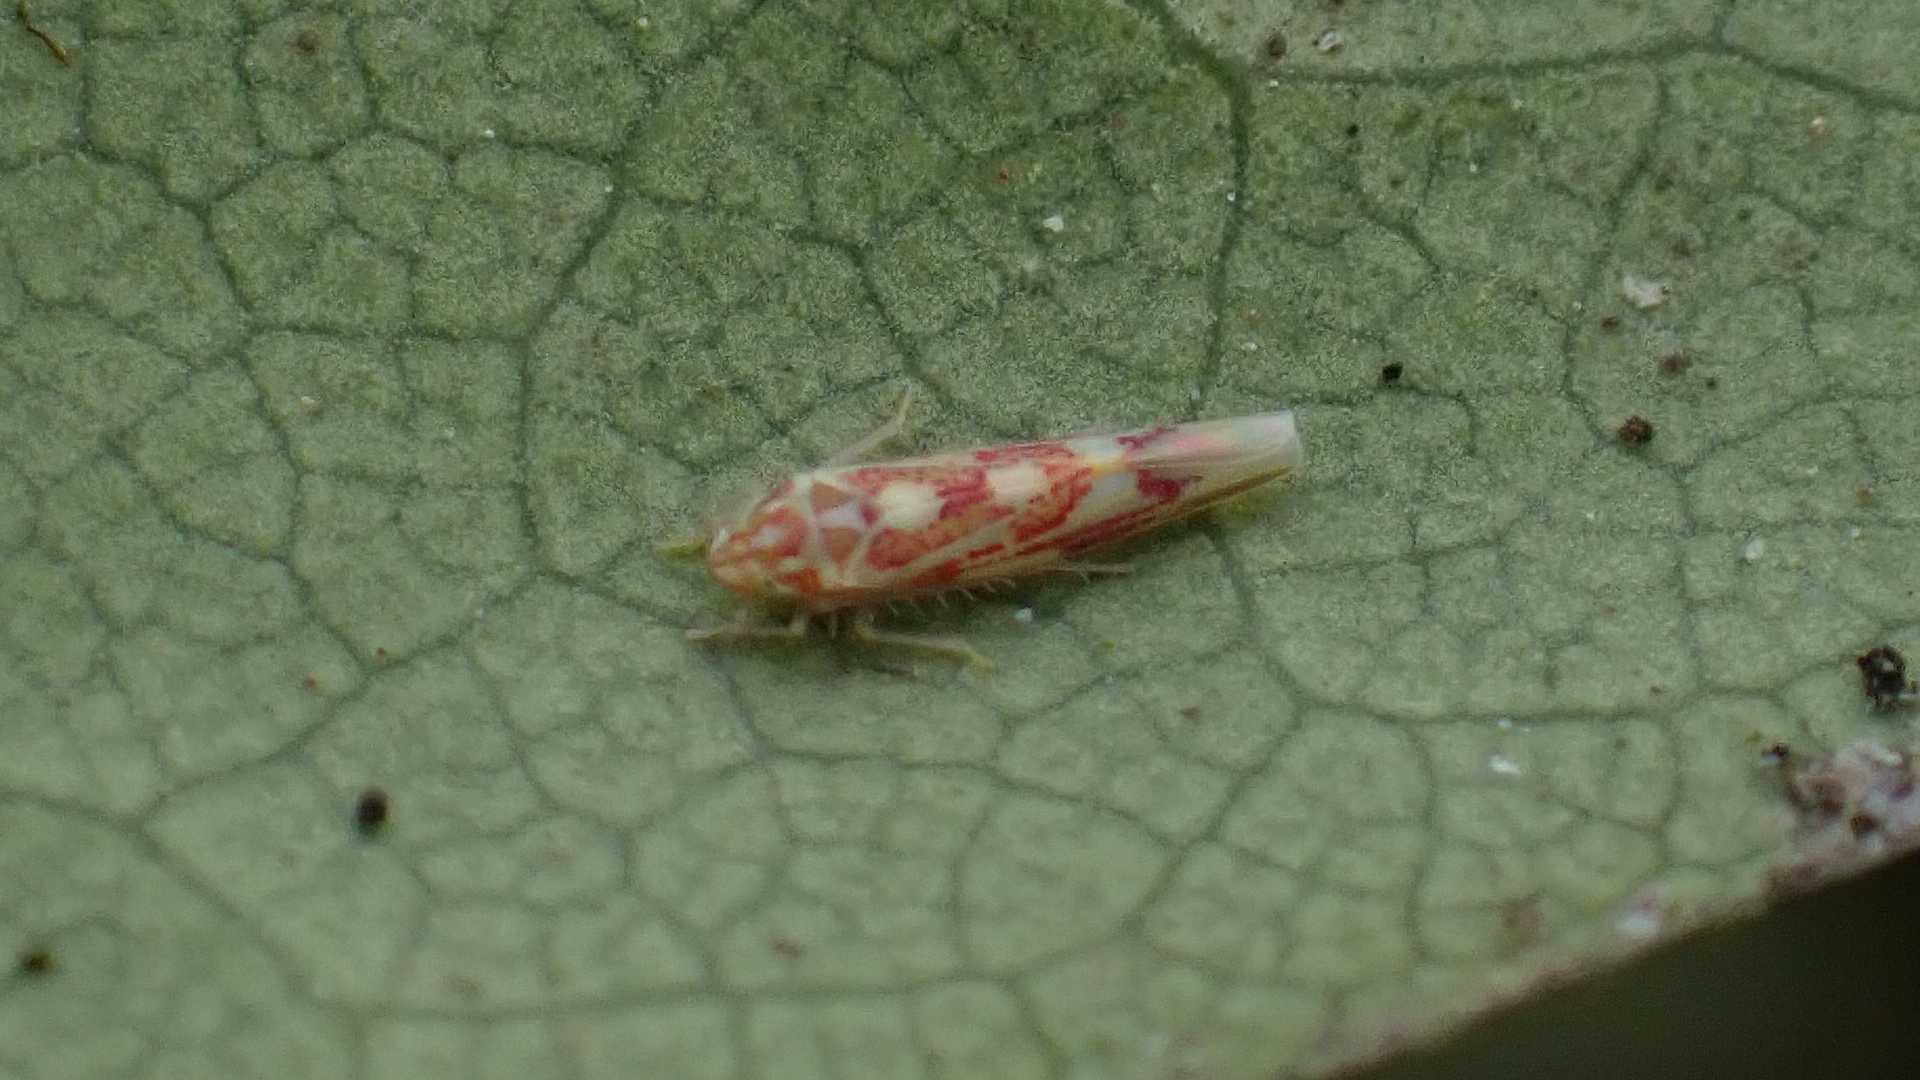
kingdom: Animalia
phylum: Arthropoda
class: Insecta
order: Hemiptera
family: Cicadellidae
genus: Zygina
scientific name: Zygina griseombra
